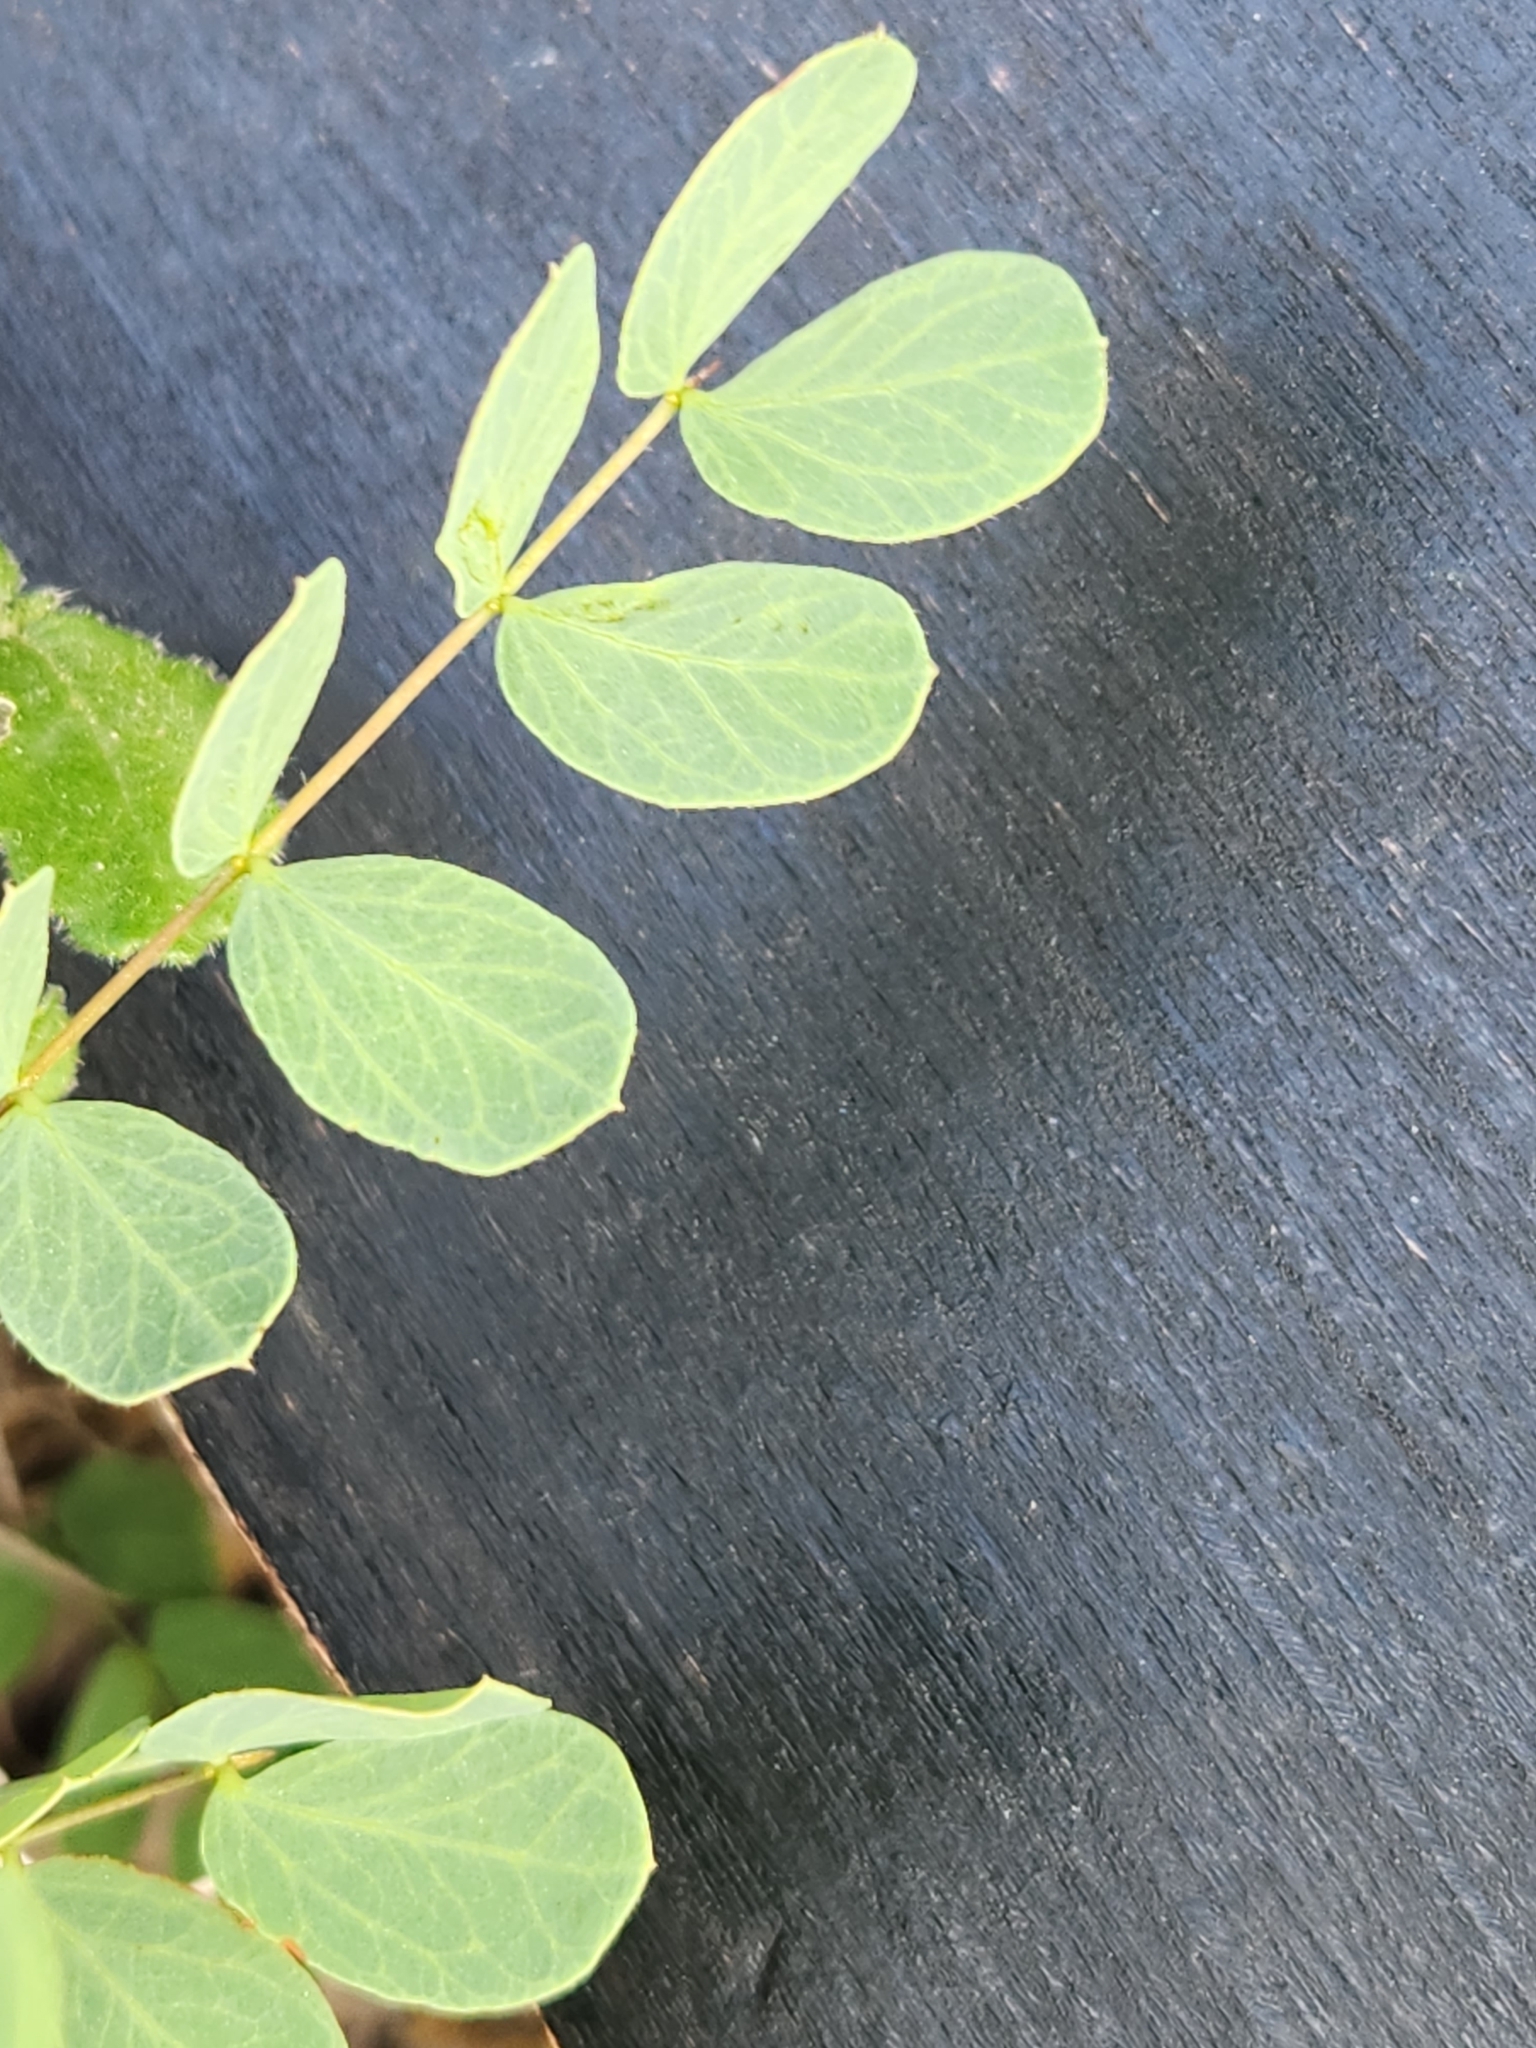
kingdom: Plantae
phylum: Tracheophyta
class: Magnoliopsida
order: Fabales
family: Fabaceae
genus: Leucaena
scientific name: Leucaena retusa
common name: Littleleaf leadtree
